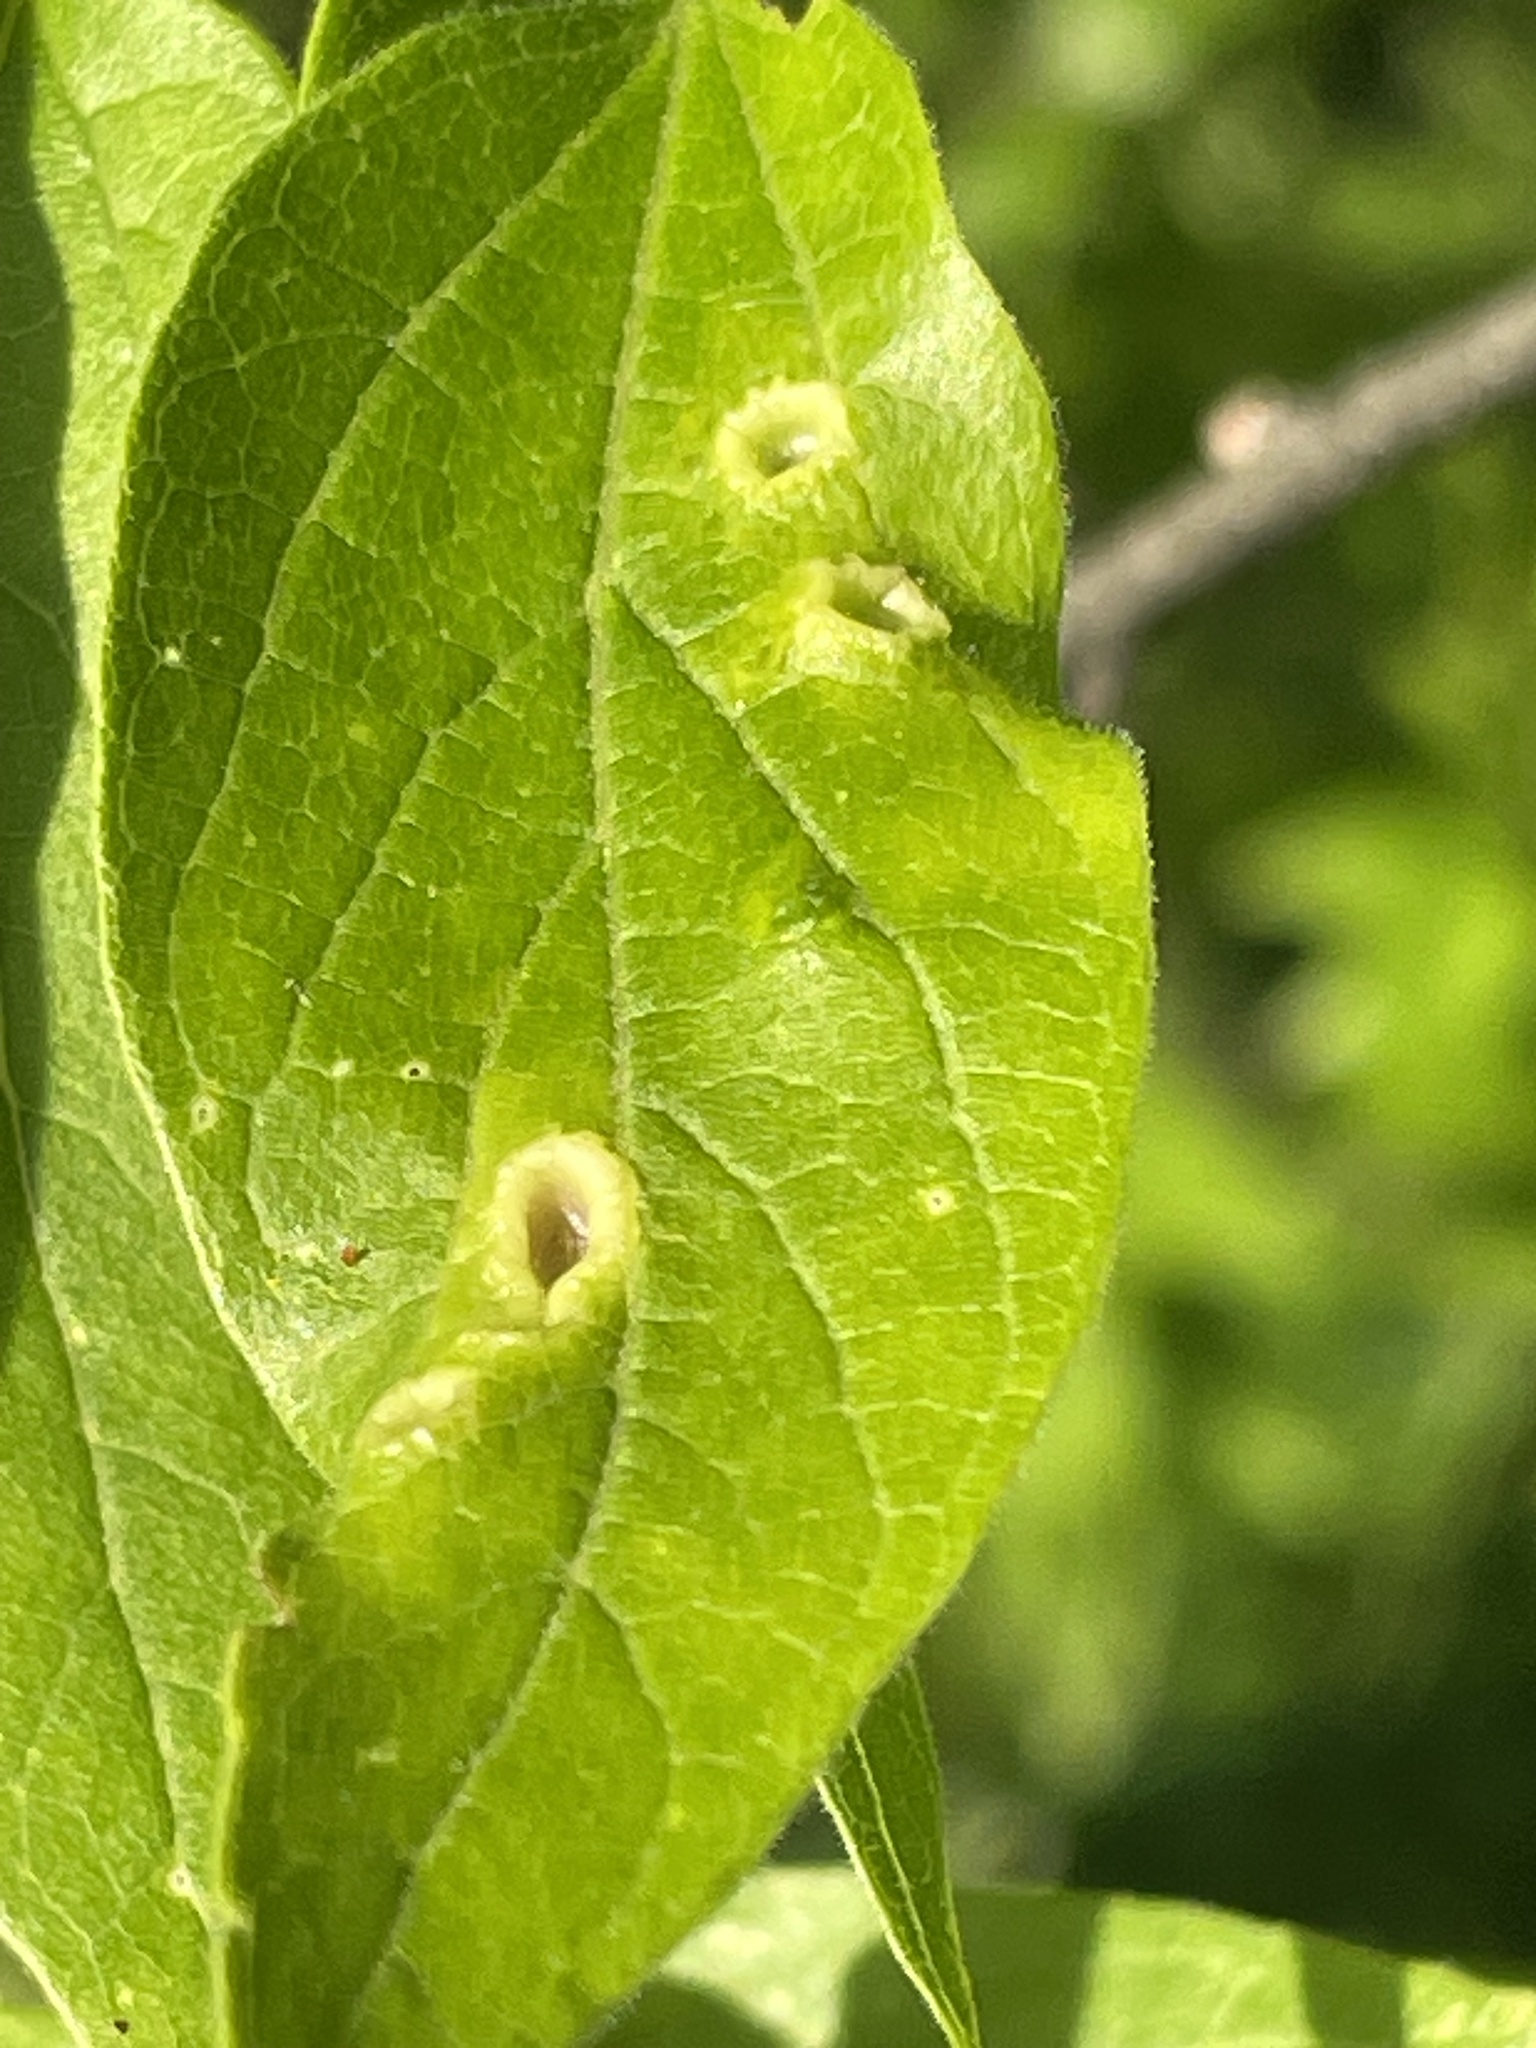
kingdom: Animalia
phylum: Arthropoda
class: Insecta
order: Hemiptera
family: Aphalaridae
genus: Pachypsylla
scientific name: Pachypsylla celtidismamma
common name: Hackberry nipplegall psyllid
